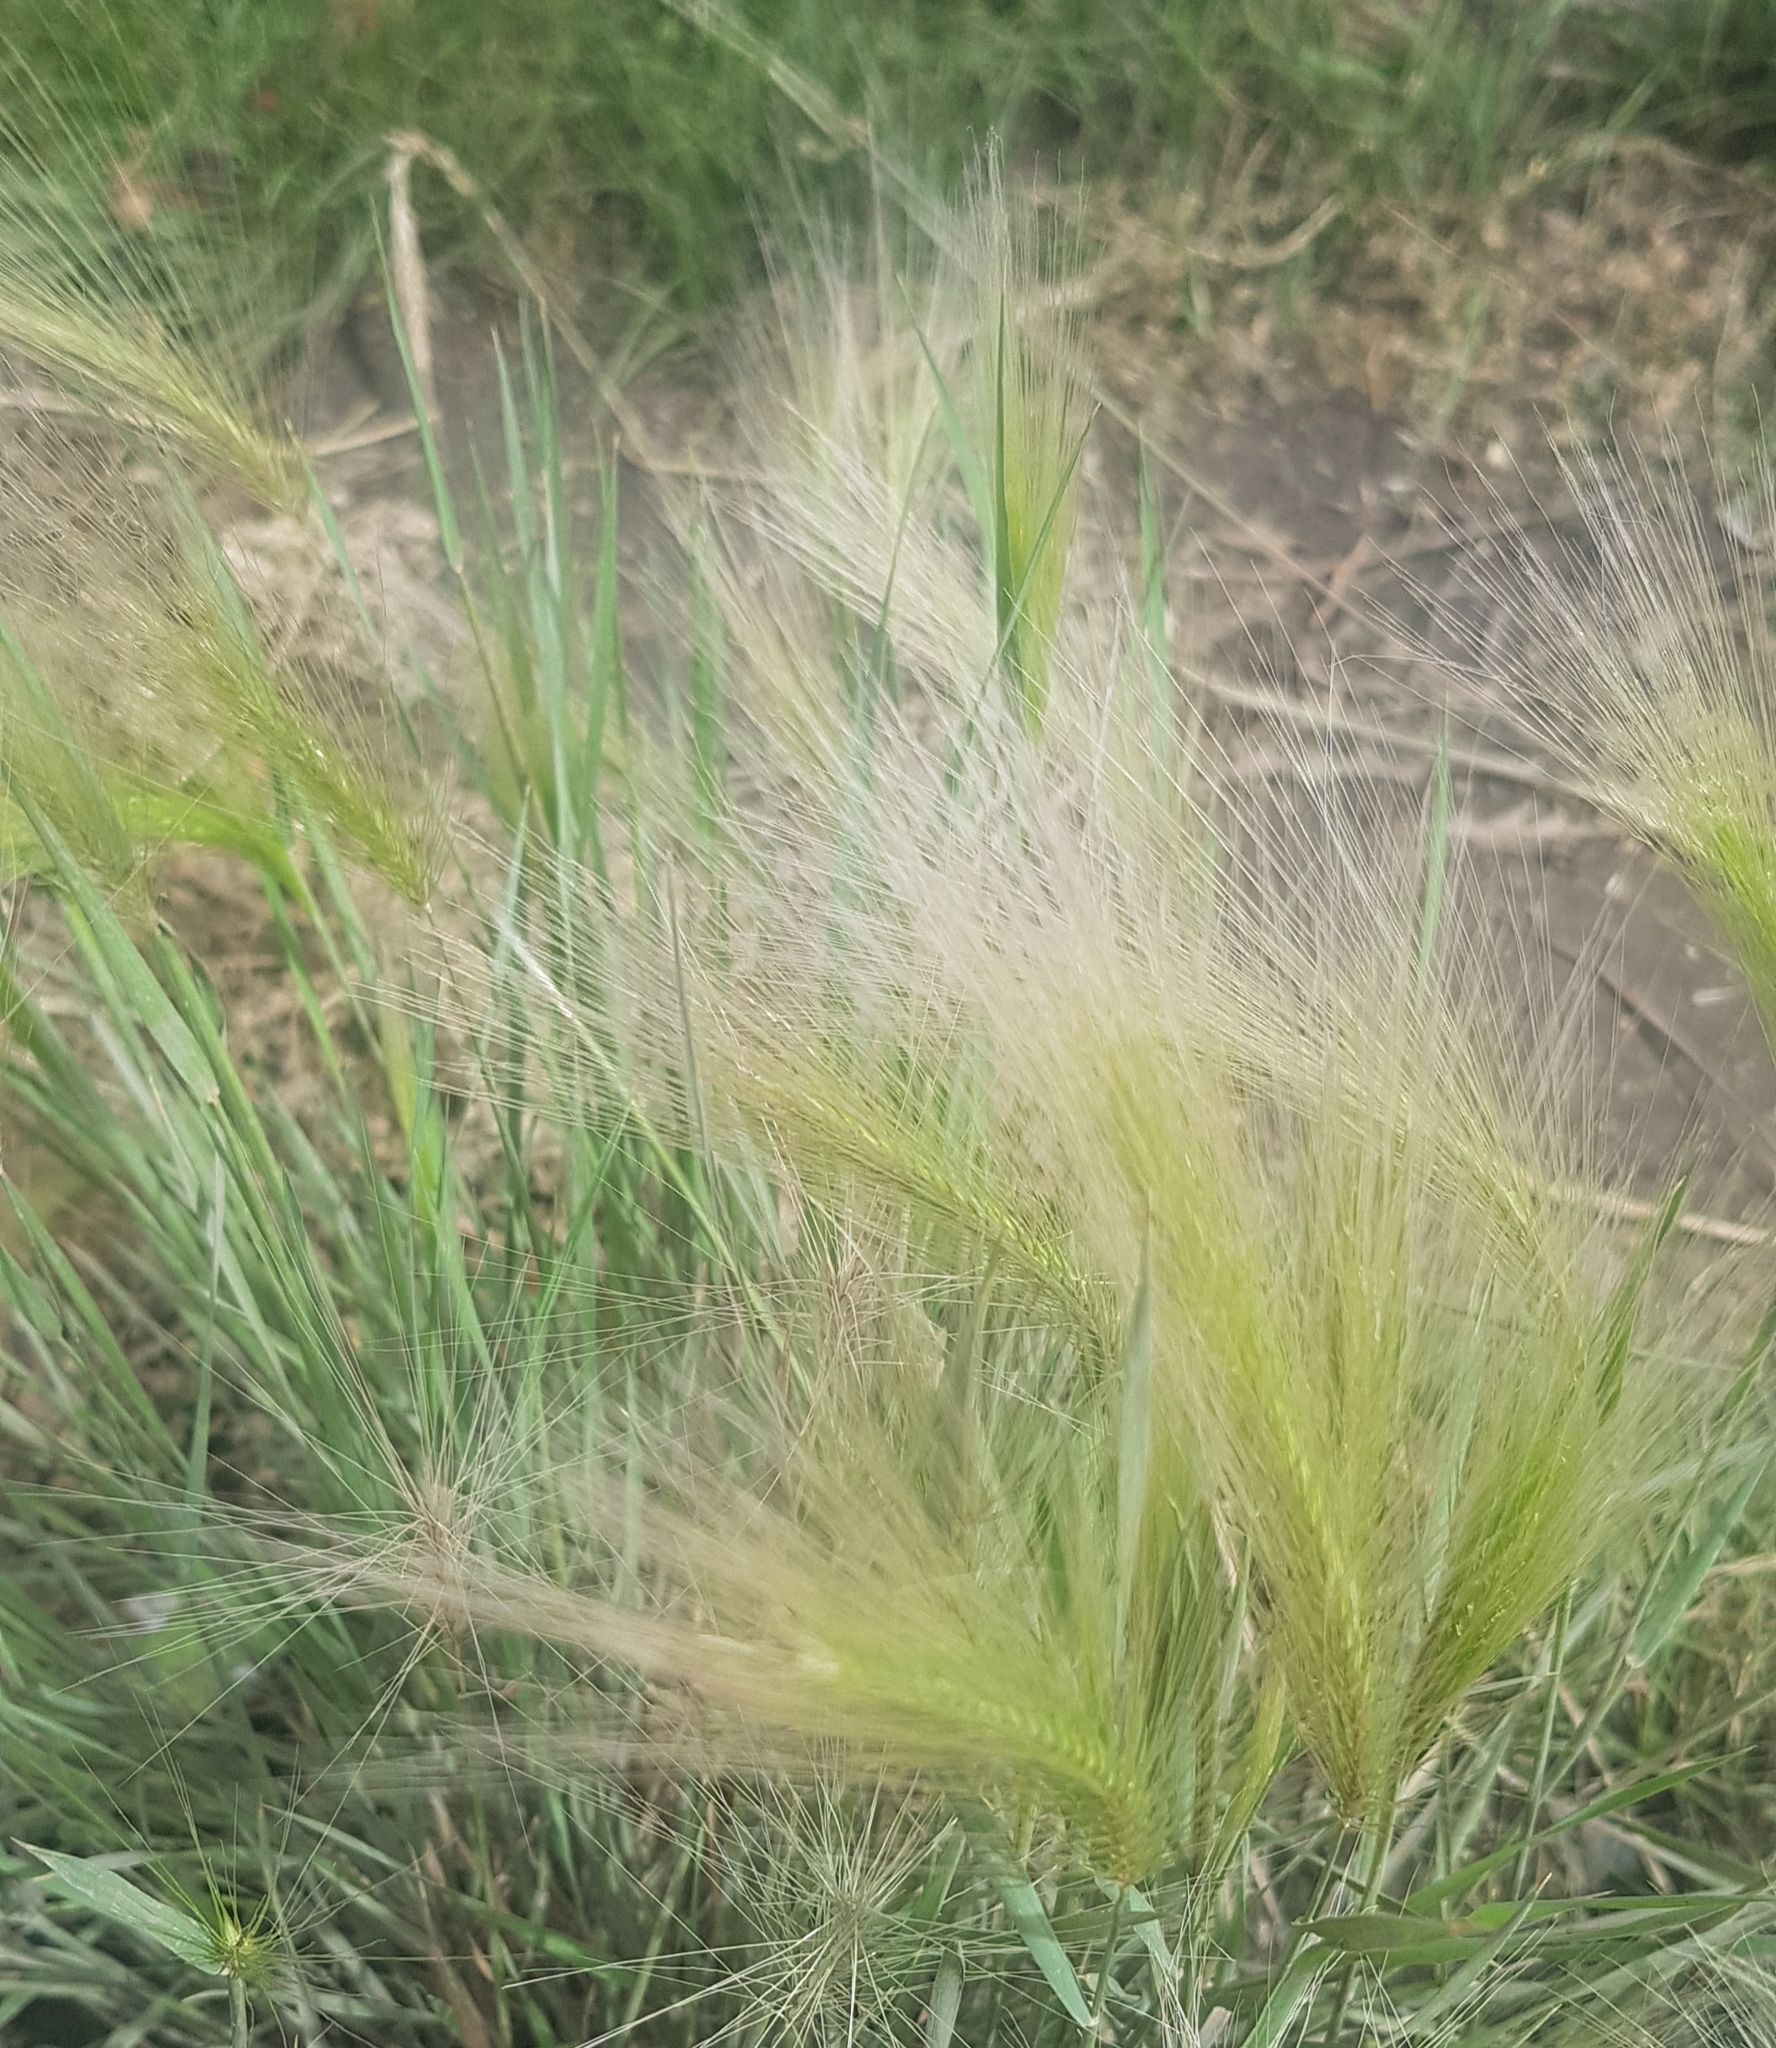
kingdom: Plantae
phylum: Tracheophyta
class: Liliopsida
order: Poales
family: Poaceae
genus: Hordeum
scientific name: Hordeum jubatum
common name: Foxtail barley
